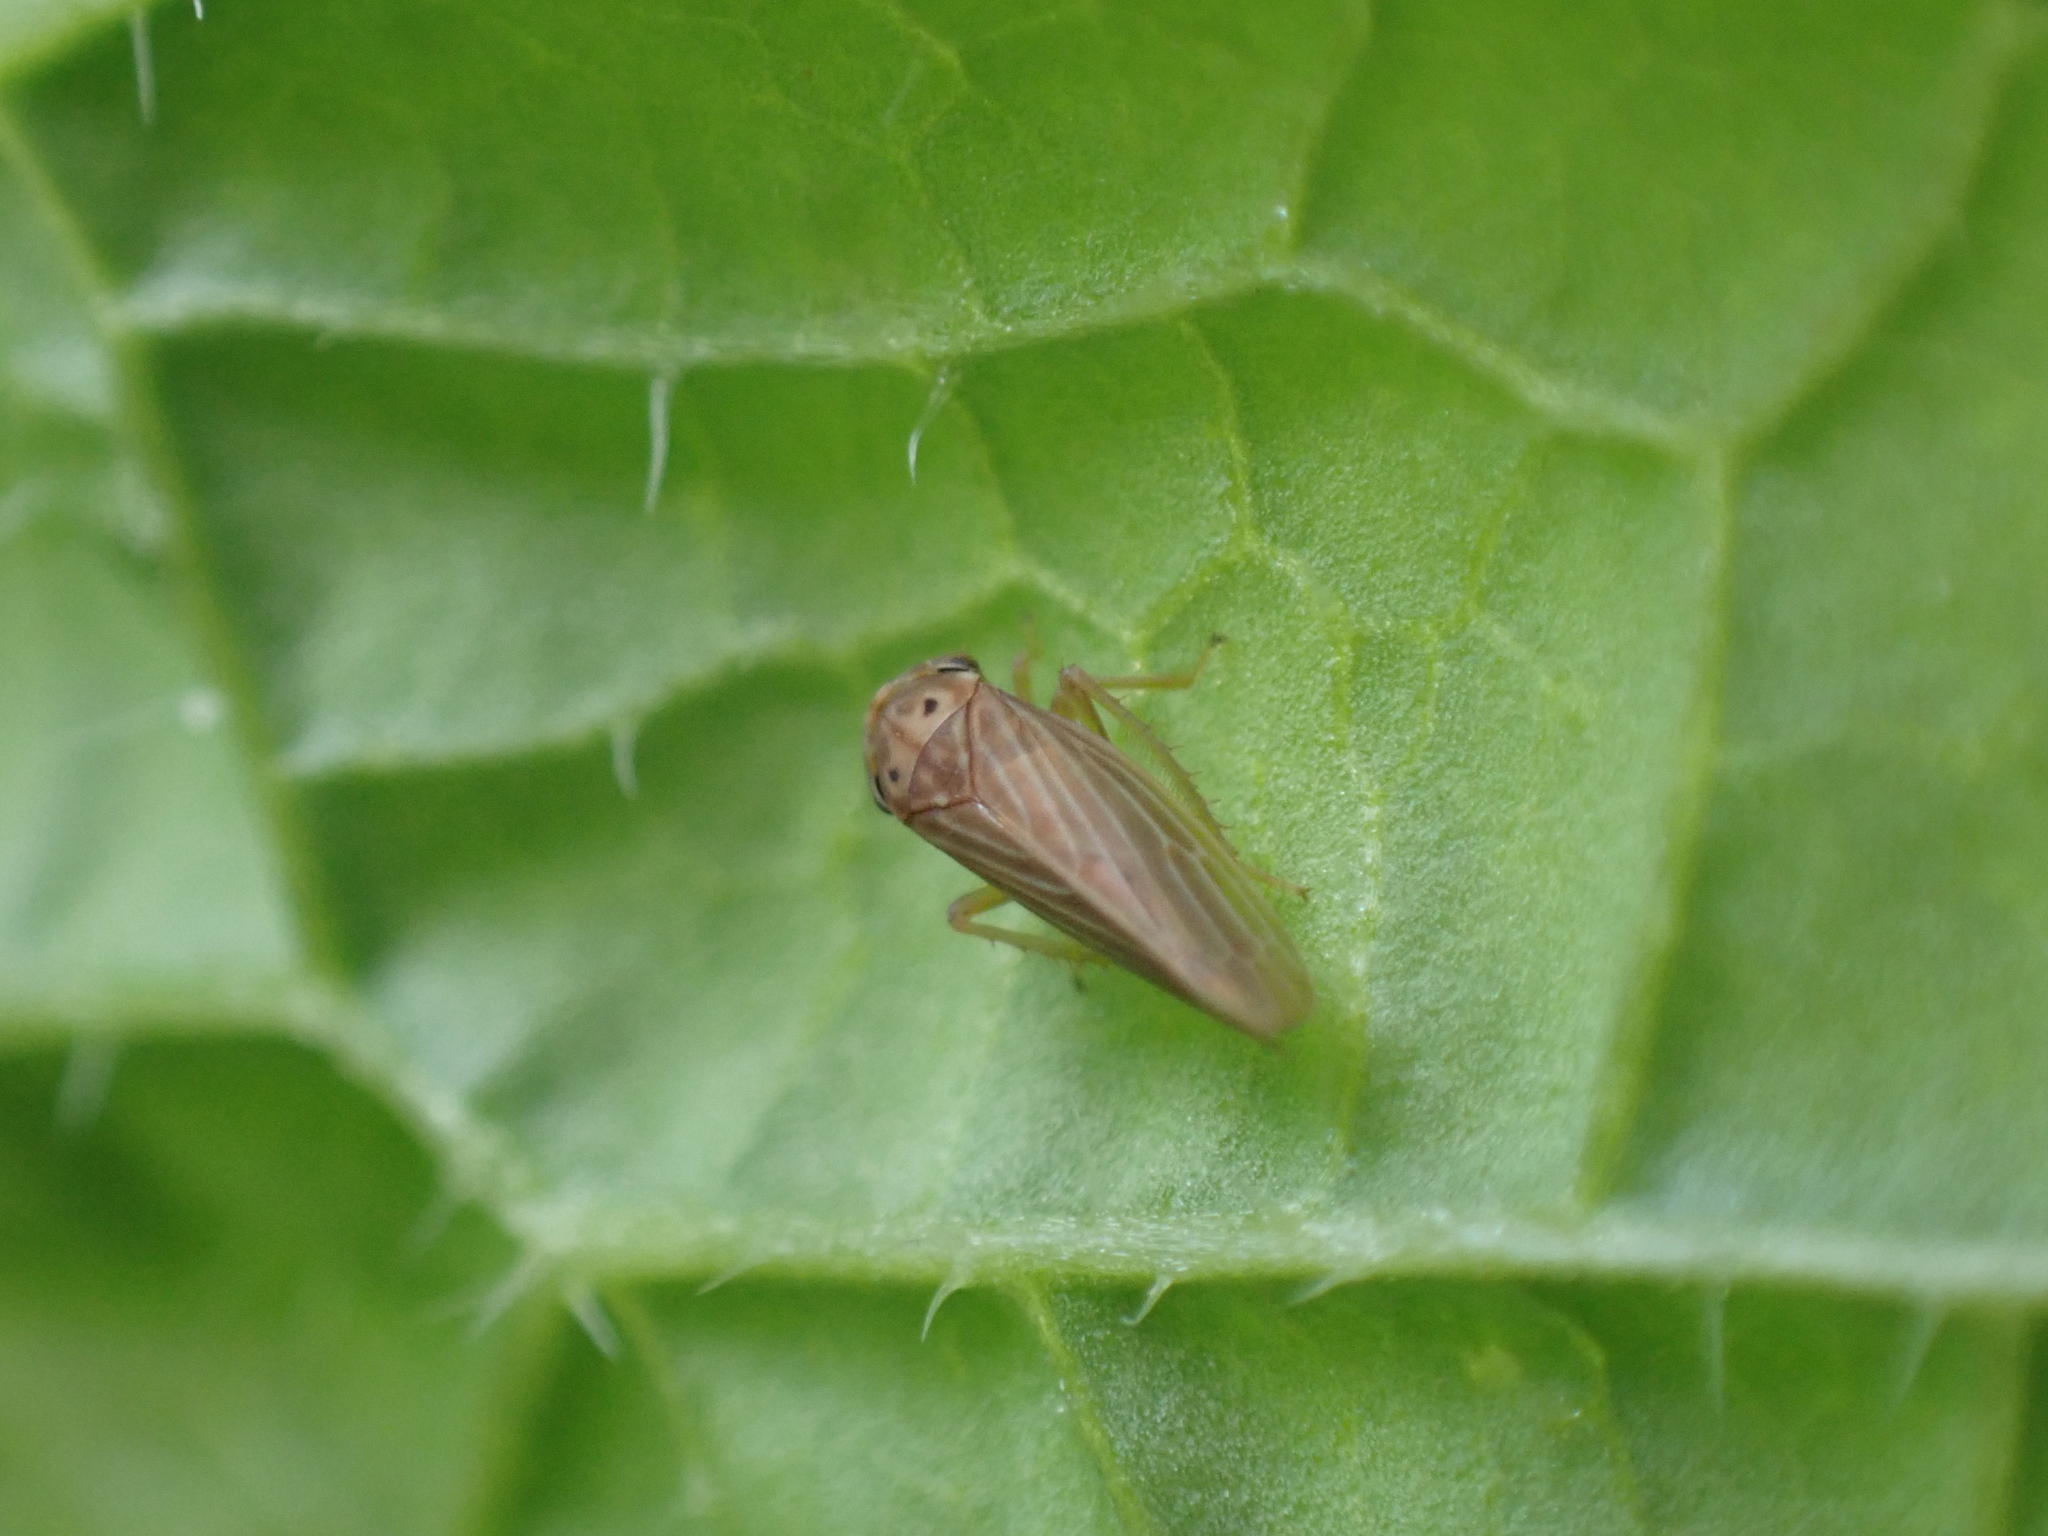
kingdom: Animalia
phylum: Arthropoda
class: Insecta
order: Hemiptera
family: Cicadellidae
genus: Agallia
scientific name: Agallia constricta
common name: The constricted leafhopper
